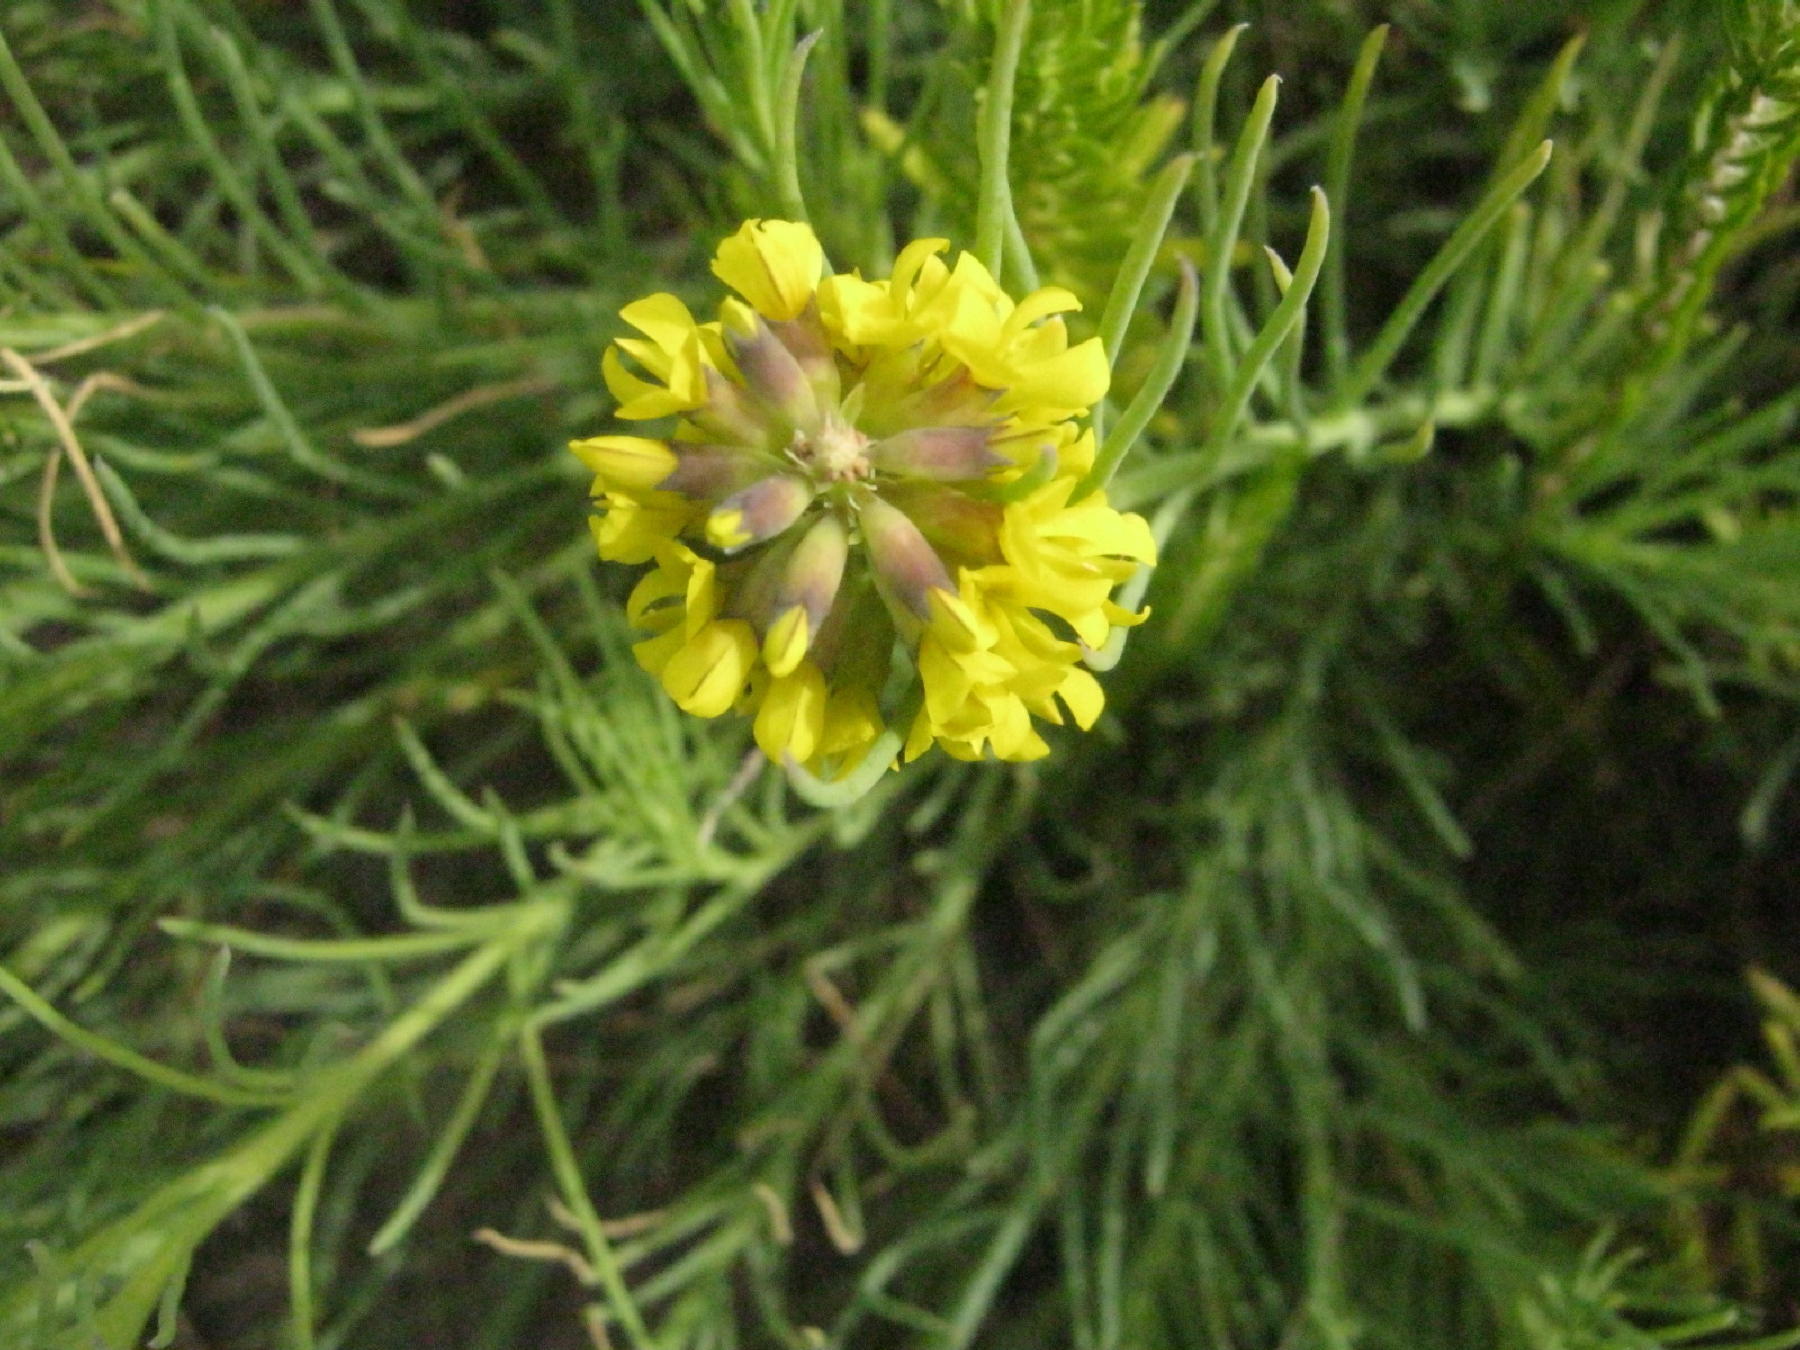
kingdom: Plantae
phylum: Tracheophyta
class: Magnoliopsida
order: Fabales
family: Fabaceae
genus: Lebeckia
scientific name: Lebeckia gracilis
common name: Slender ganna
